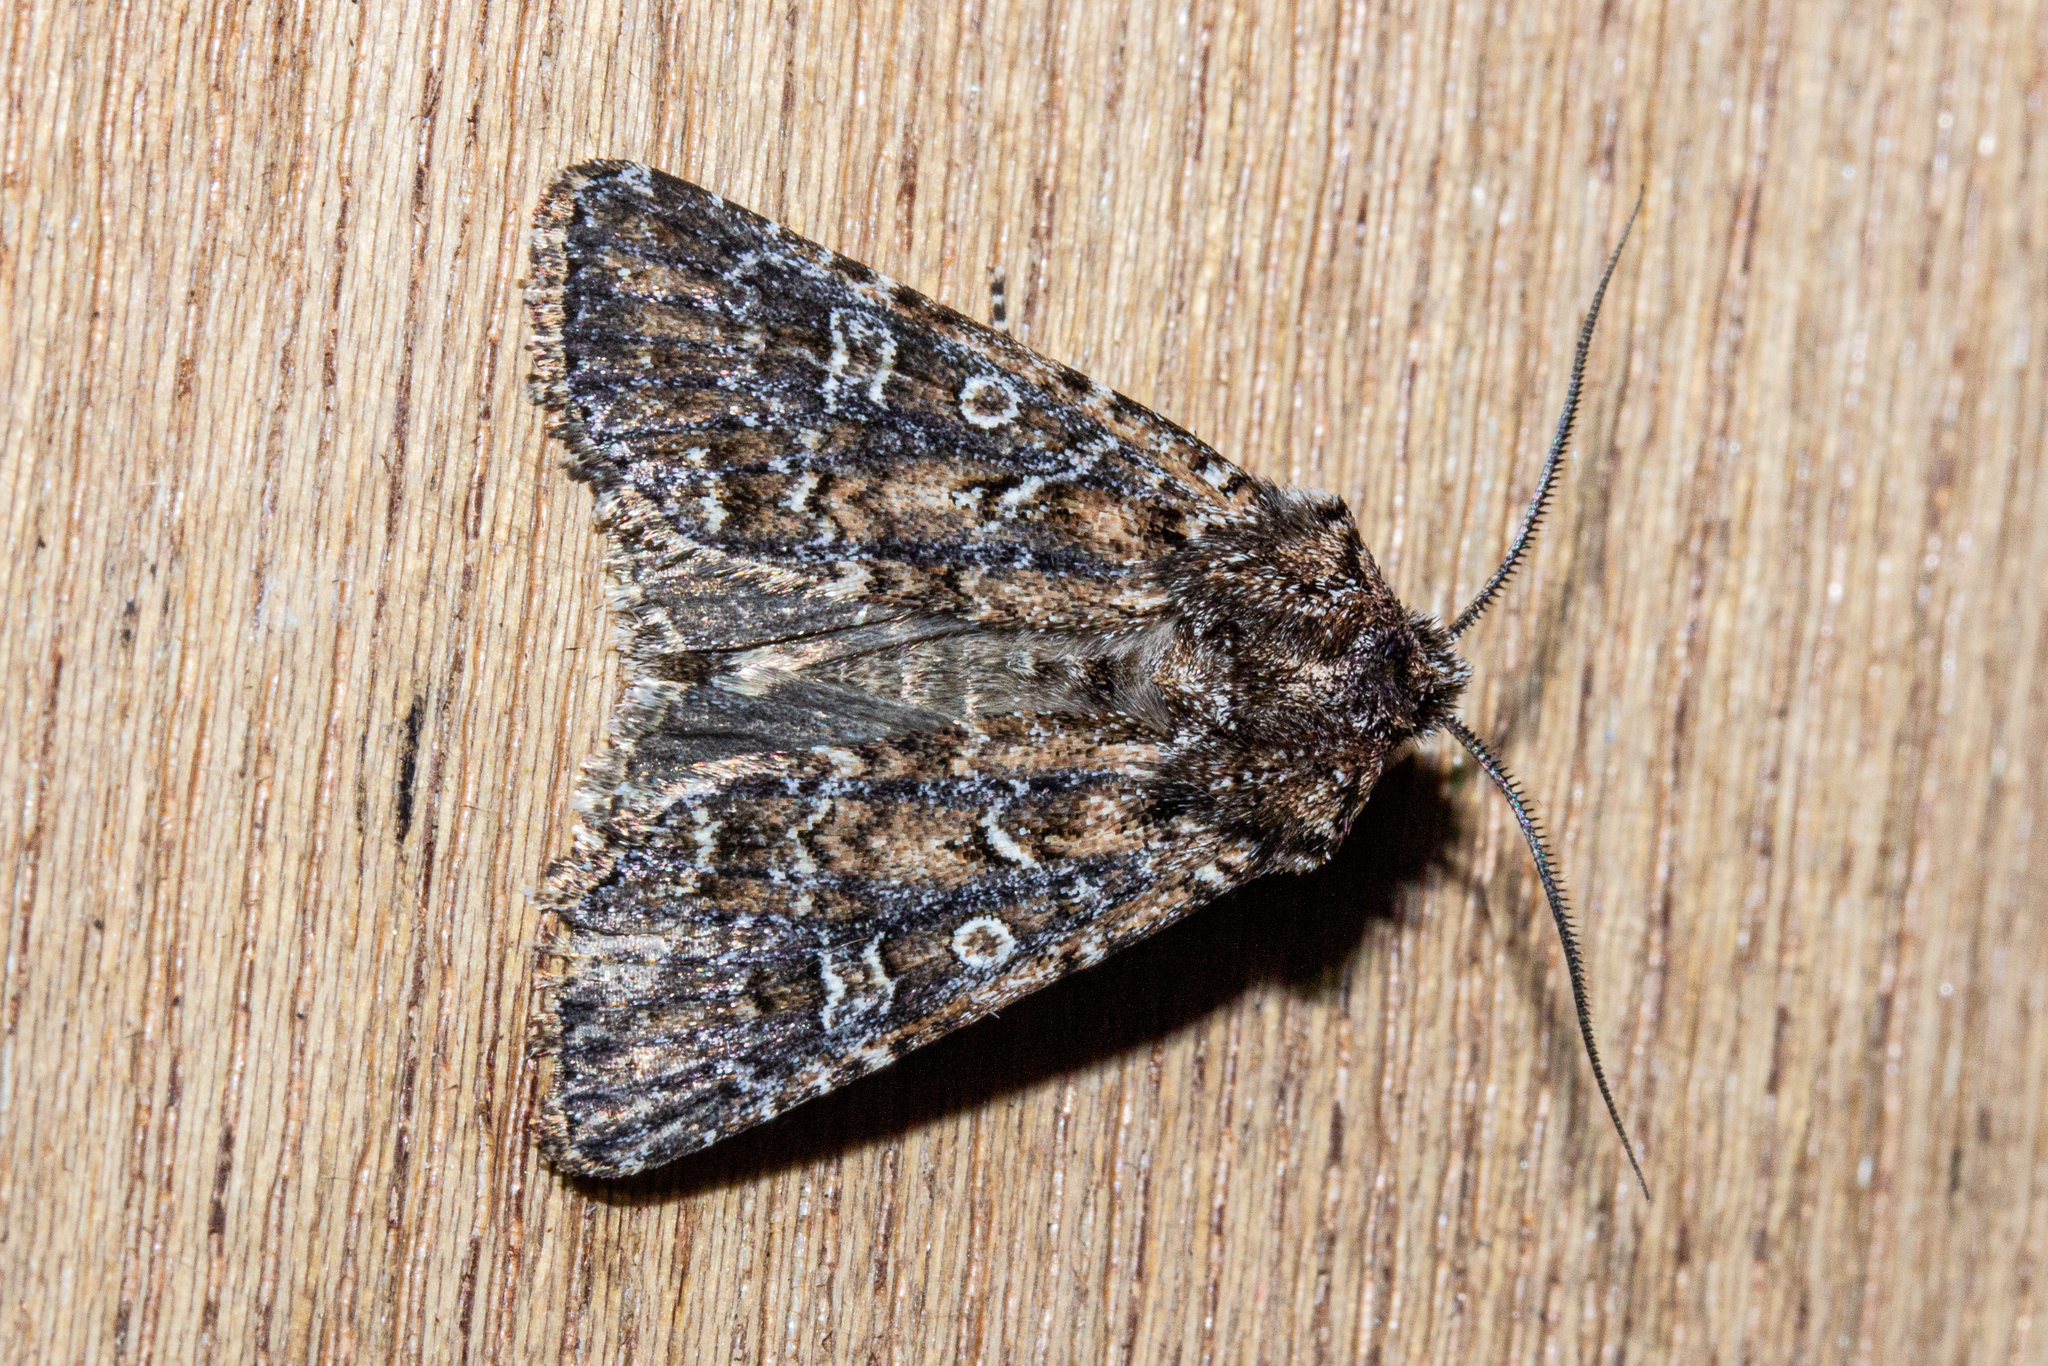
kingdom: Animalia
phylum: Arthropoda
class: Insecta
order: Lepidoptera
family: Noctuidae
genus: Ichneutica
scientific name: Ichneutica lithias
